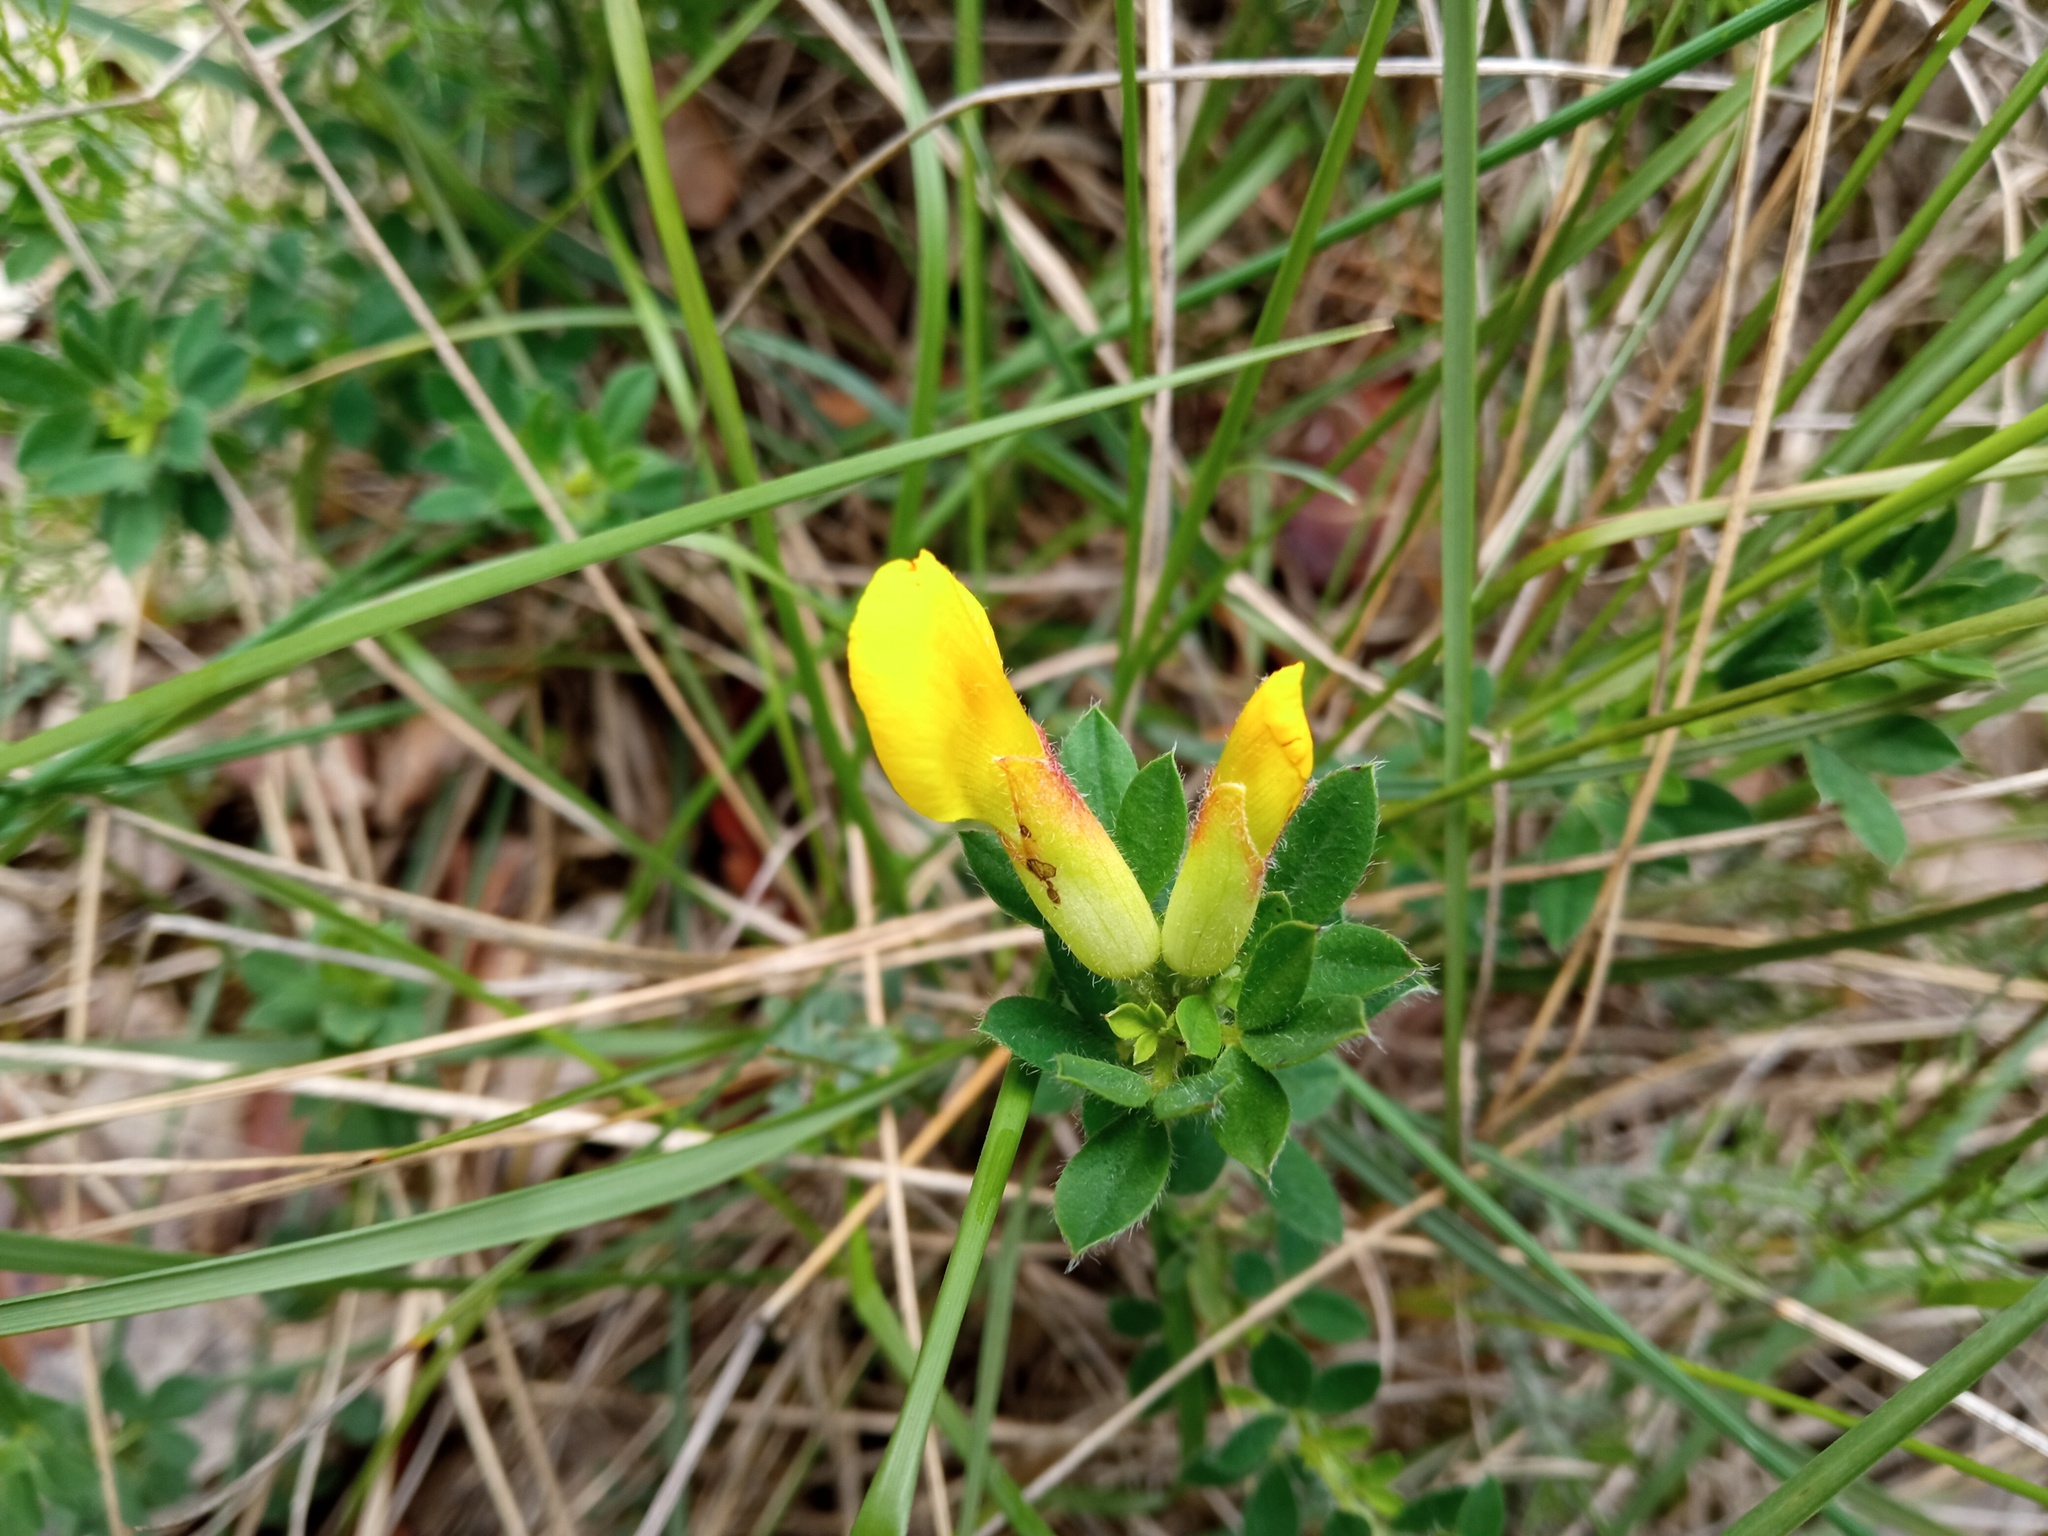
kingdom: Plantae
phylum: Tracheophyta
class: Magnoliopsida
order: Fabales
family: Fabaceae
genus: Chamaecytisus
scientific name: Chamaecytisus supinus
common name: Clustered broom
